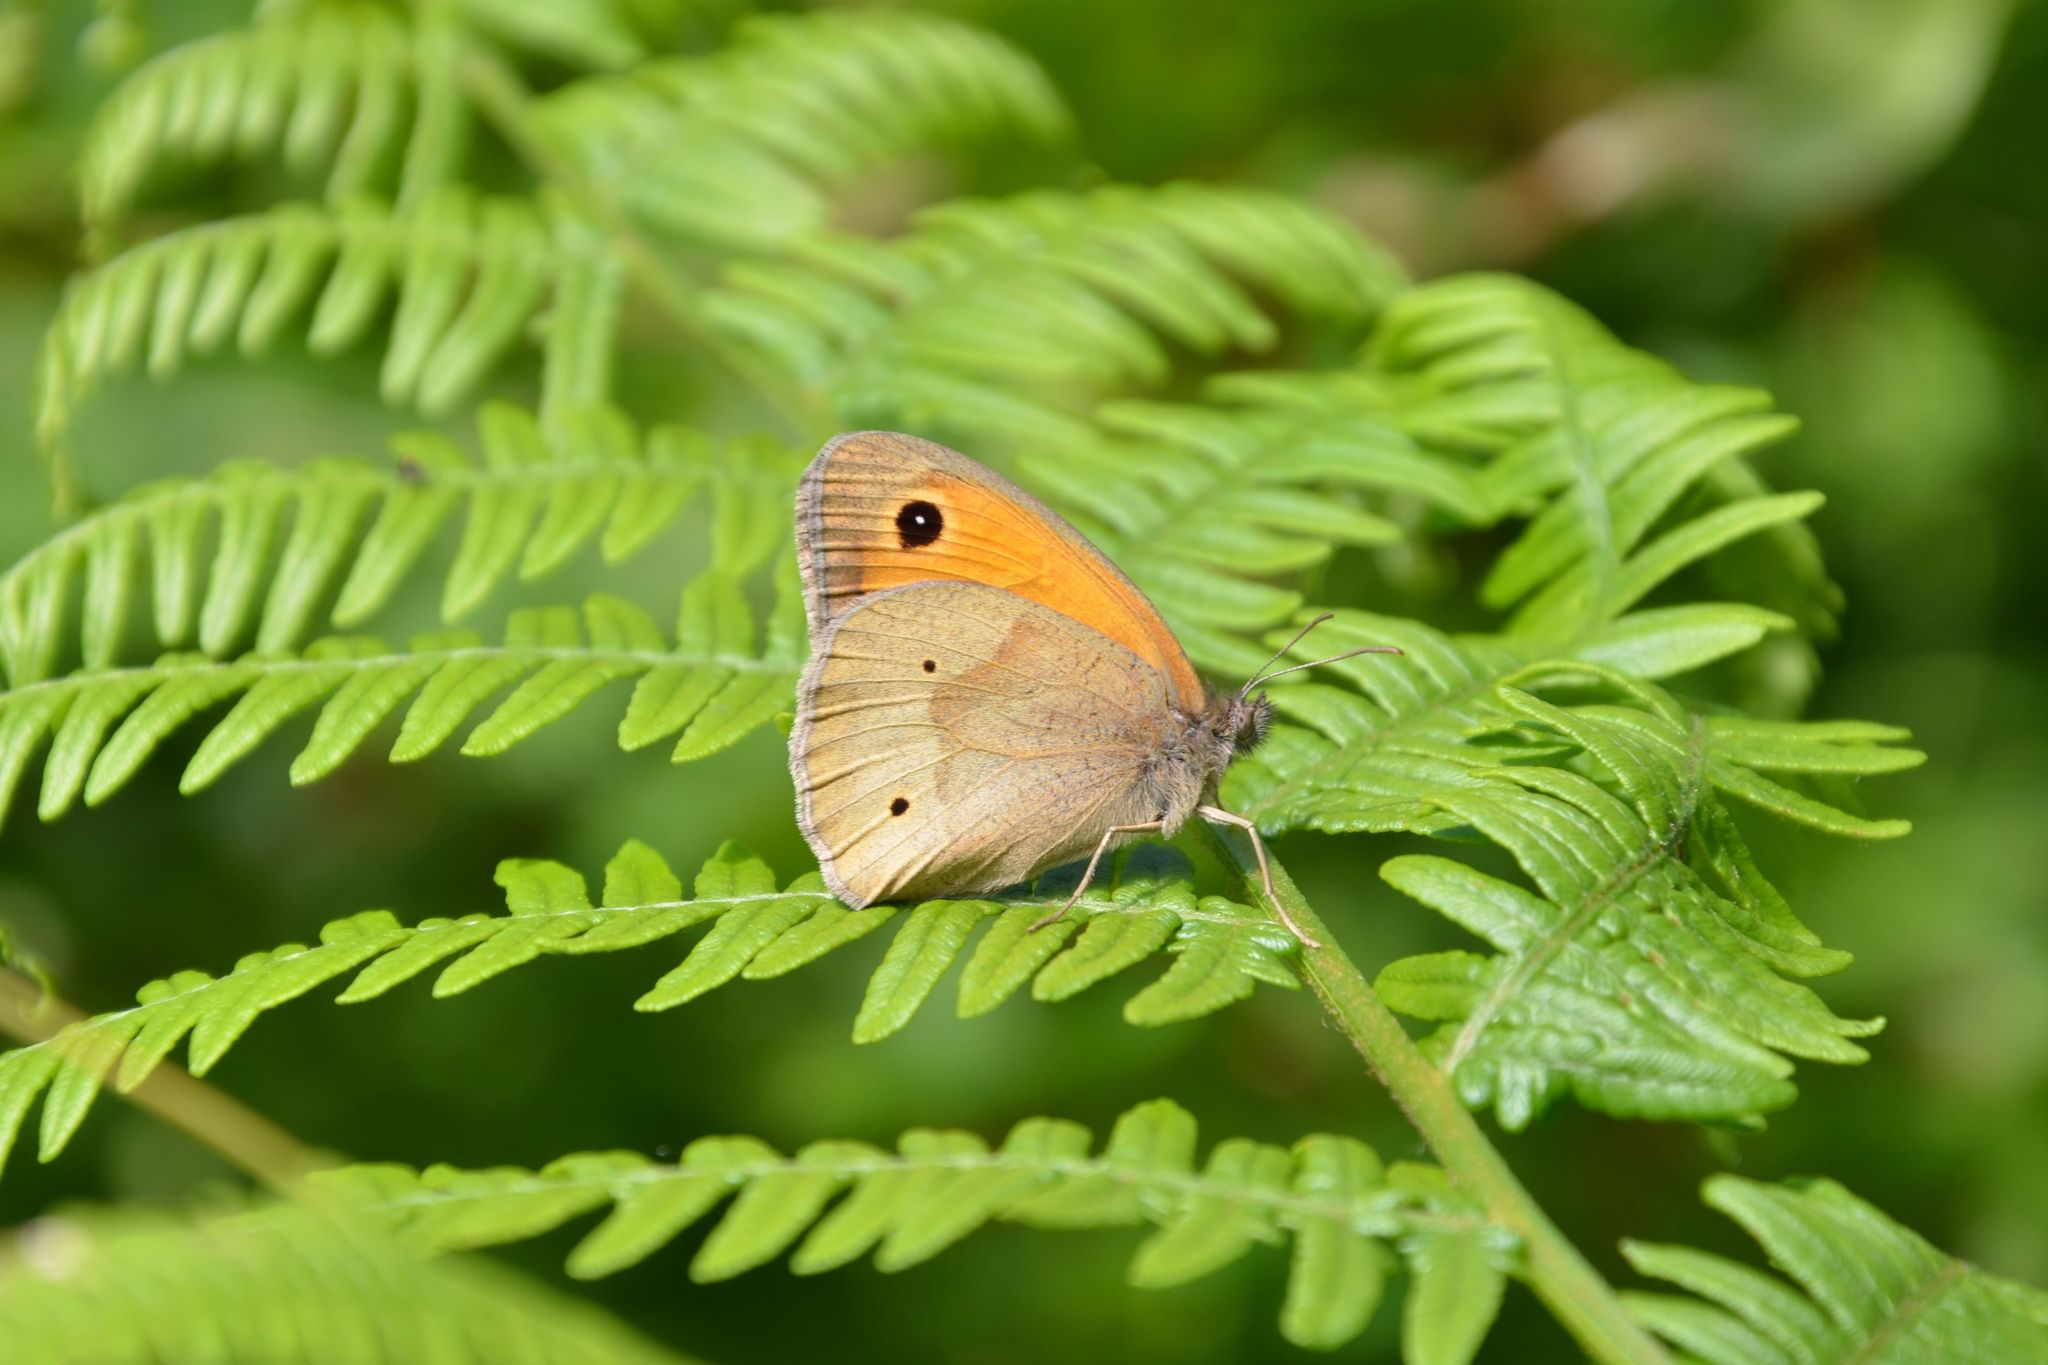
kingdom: Animalia
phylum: Arthropoda
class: Insecta
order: Lepidoptera
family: Nymphalidae
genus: Maniola
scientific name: Maniola jurtina
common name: Meadow brown
